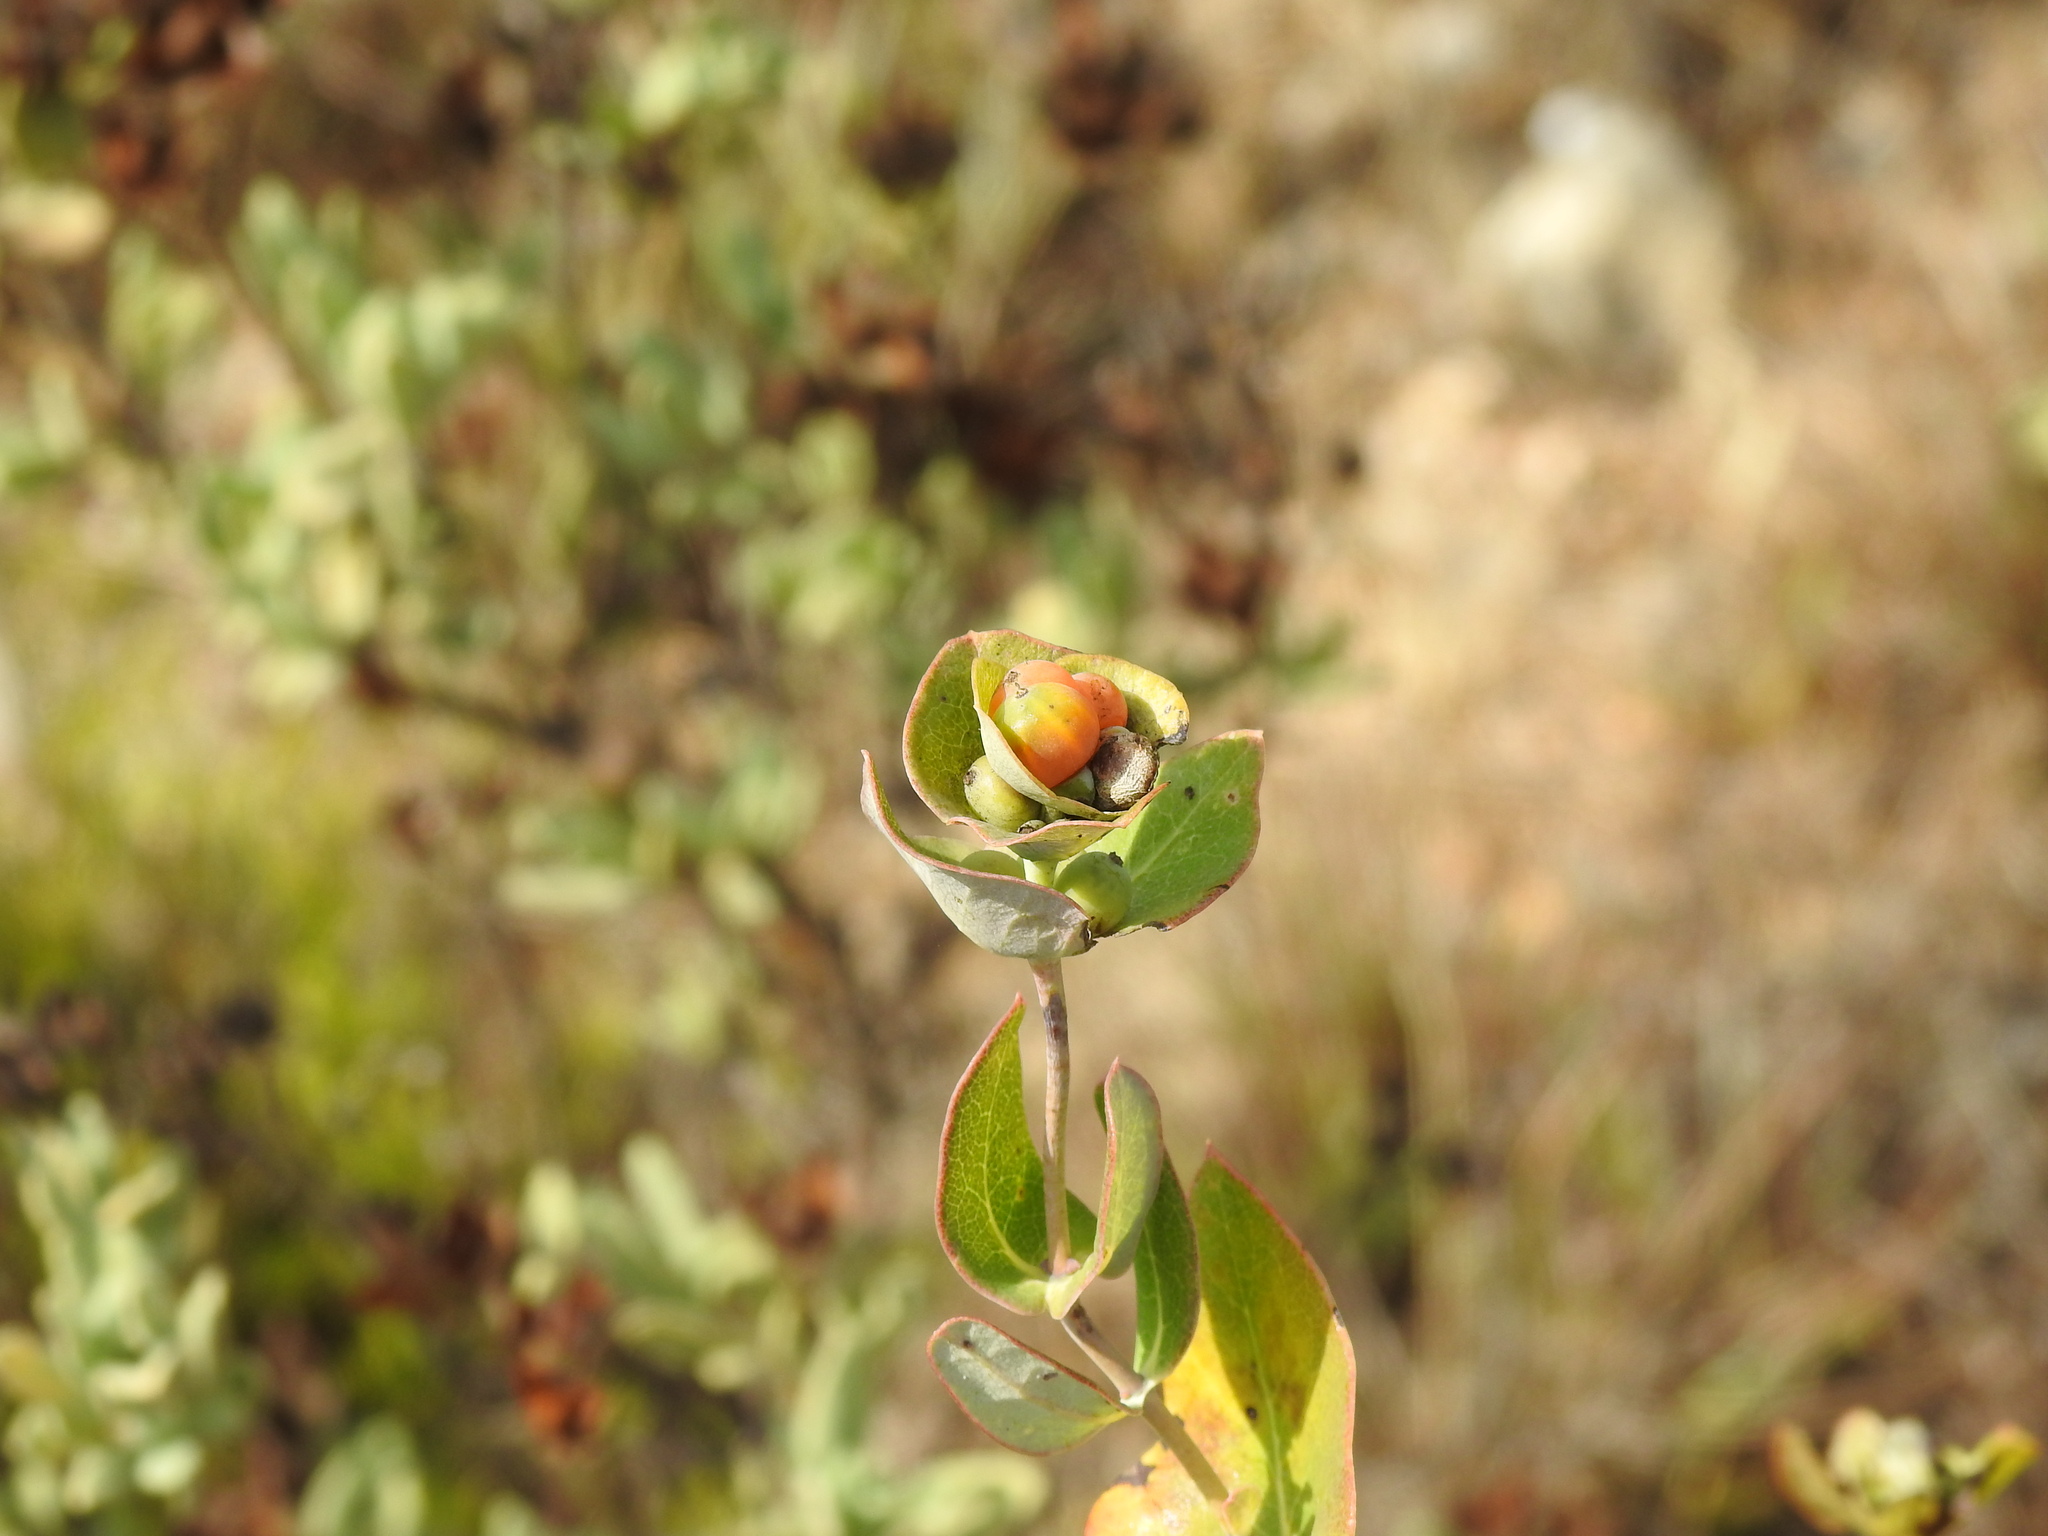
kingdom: Plantae
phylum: Tracheophyta
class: Magnoliopsida
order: Dipsacales
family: Caprifoliaceae
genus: Lonicera
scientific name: Lonicera implexa
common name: Minorca honeysuckle
